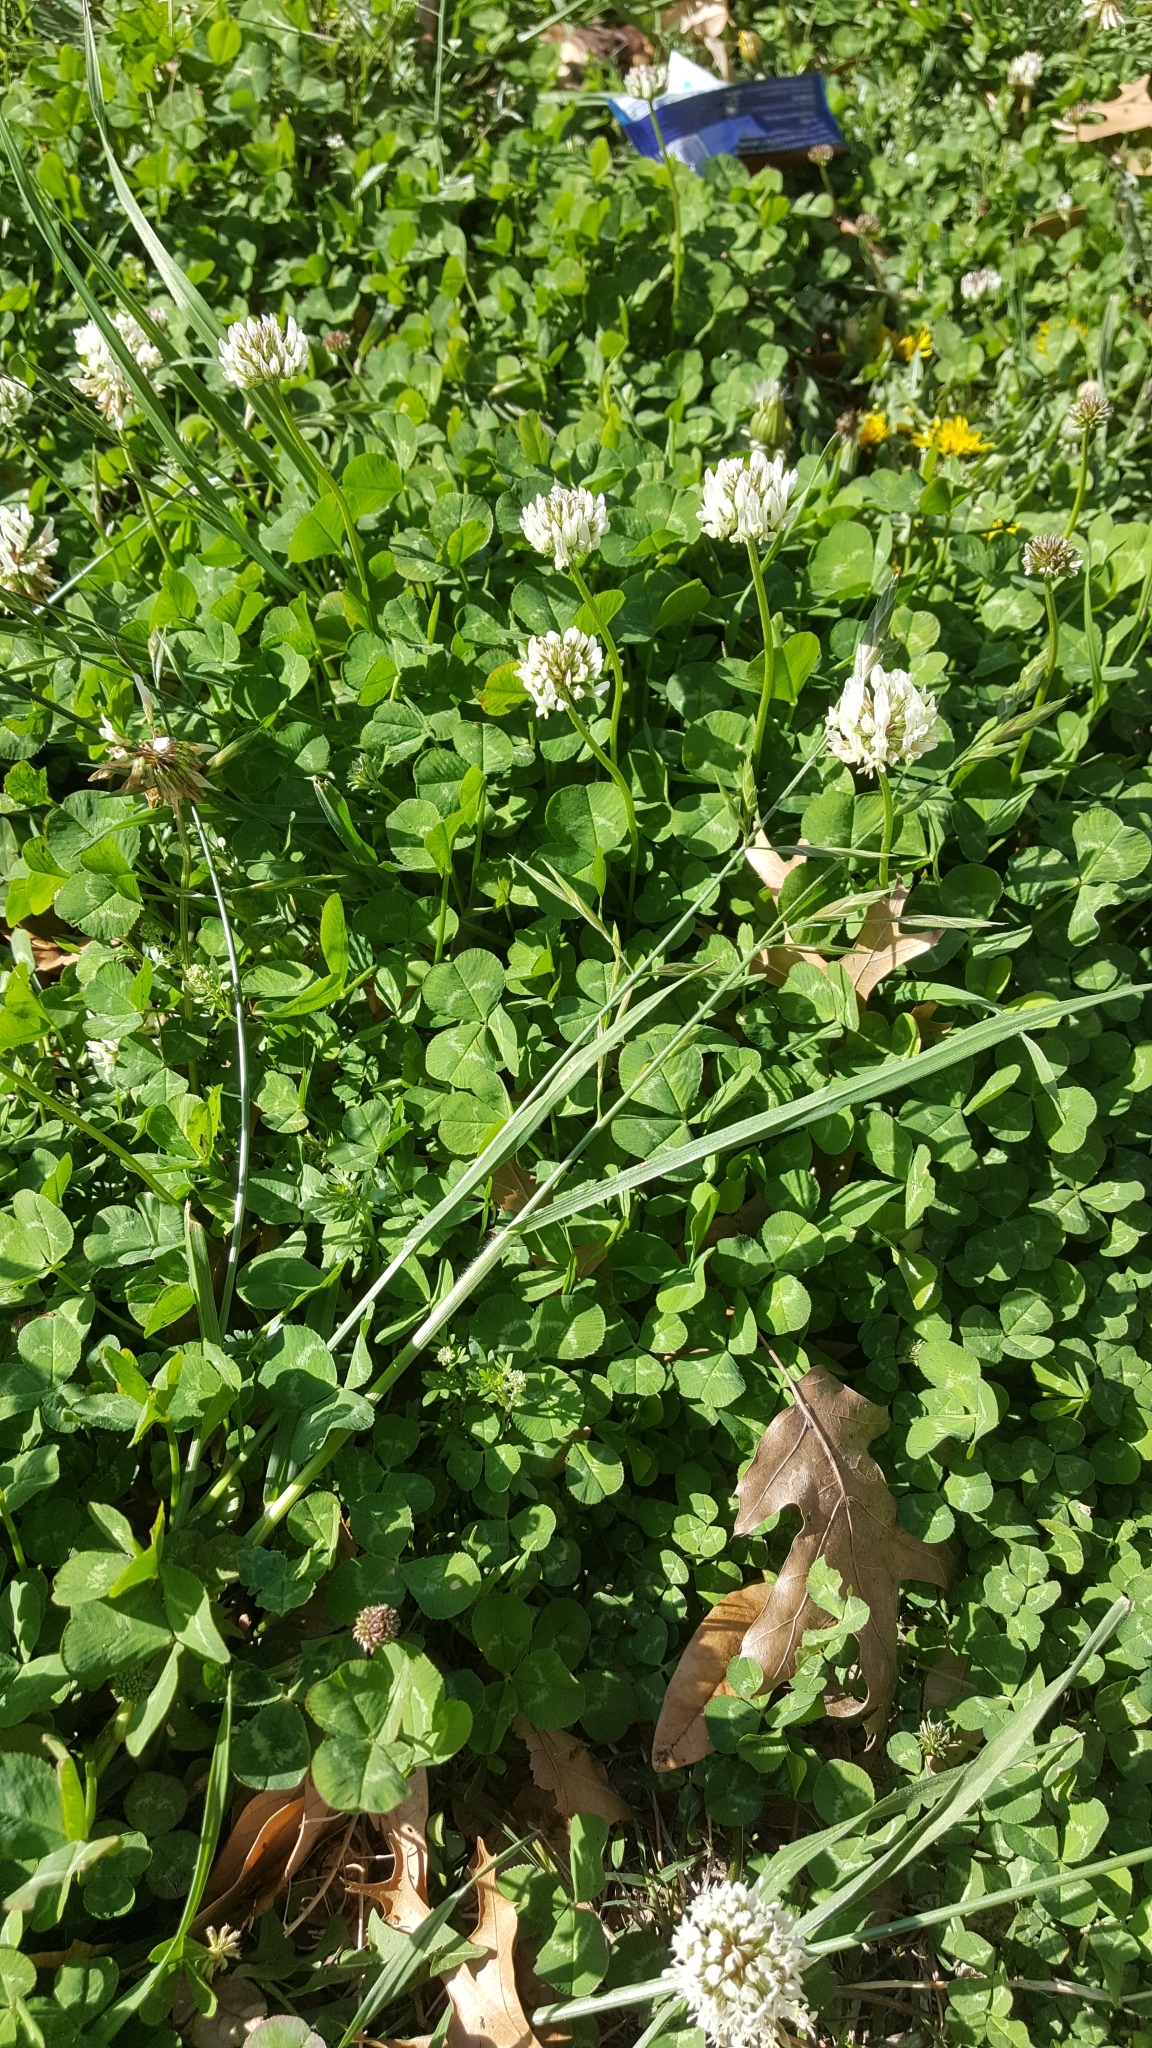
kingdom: Plantae
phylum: Tracheophyta
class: Magnoliopsida
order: Fabales
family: Fabaceae
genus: Trifolium
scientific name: Trifolium repens
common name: White clover
